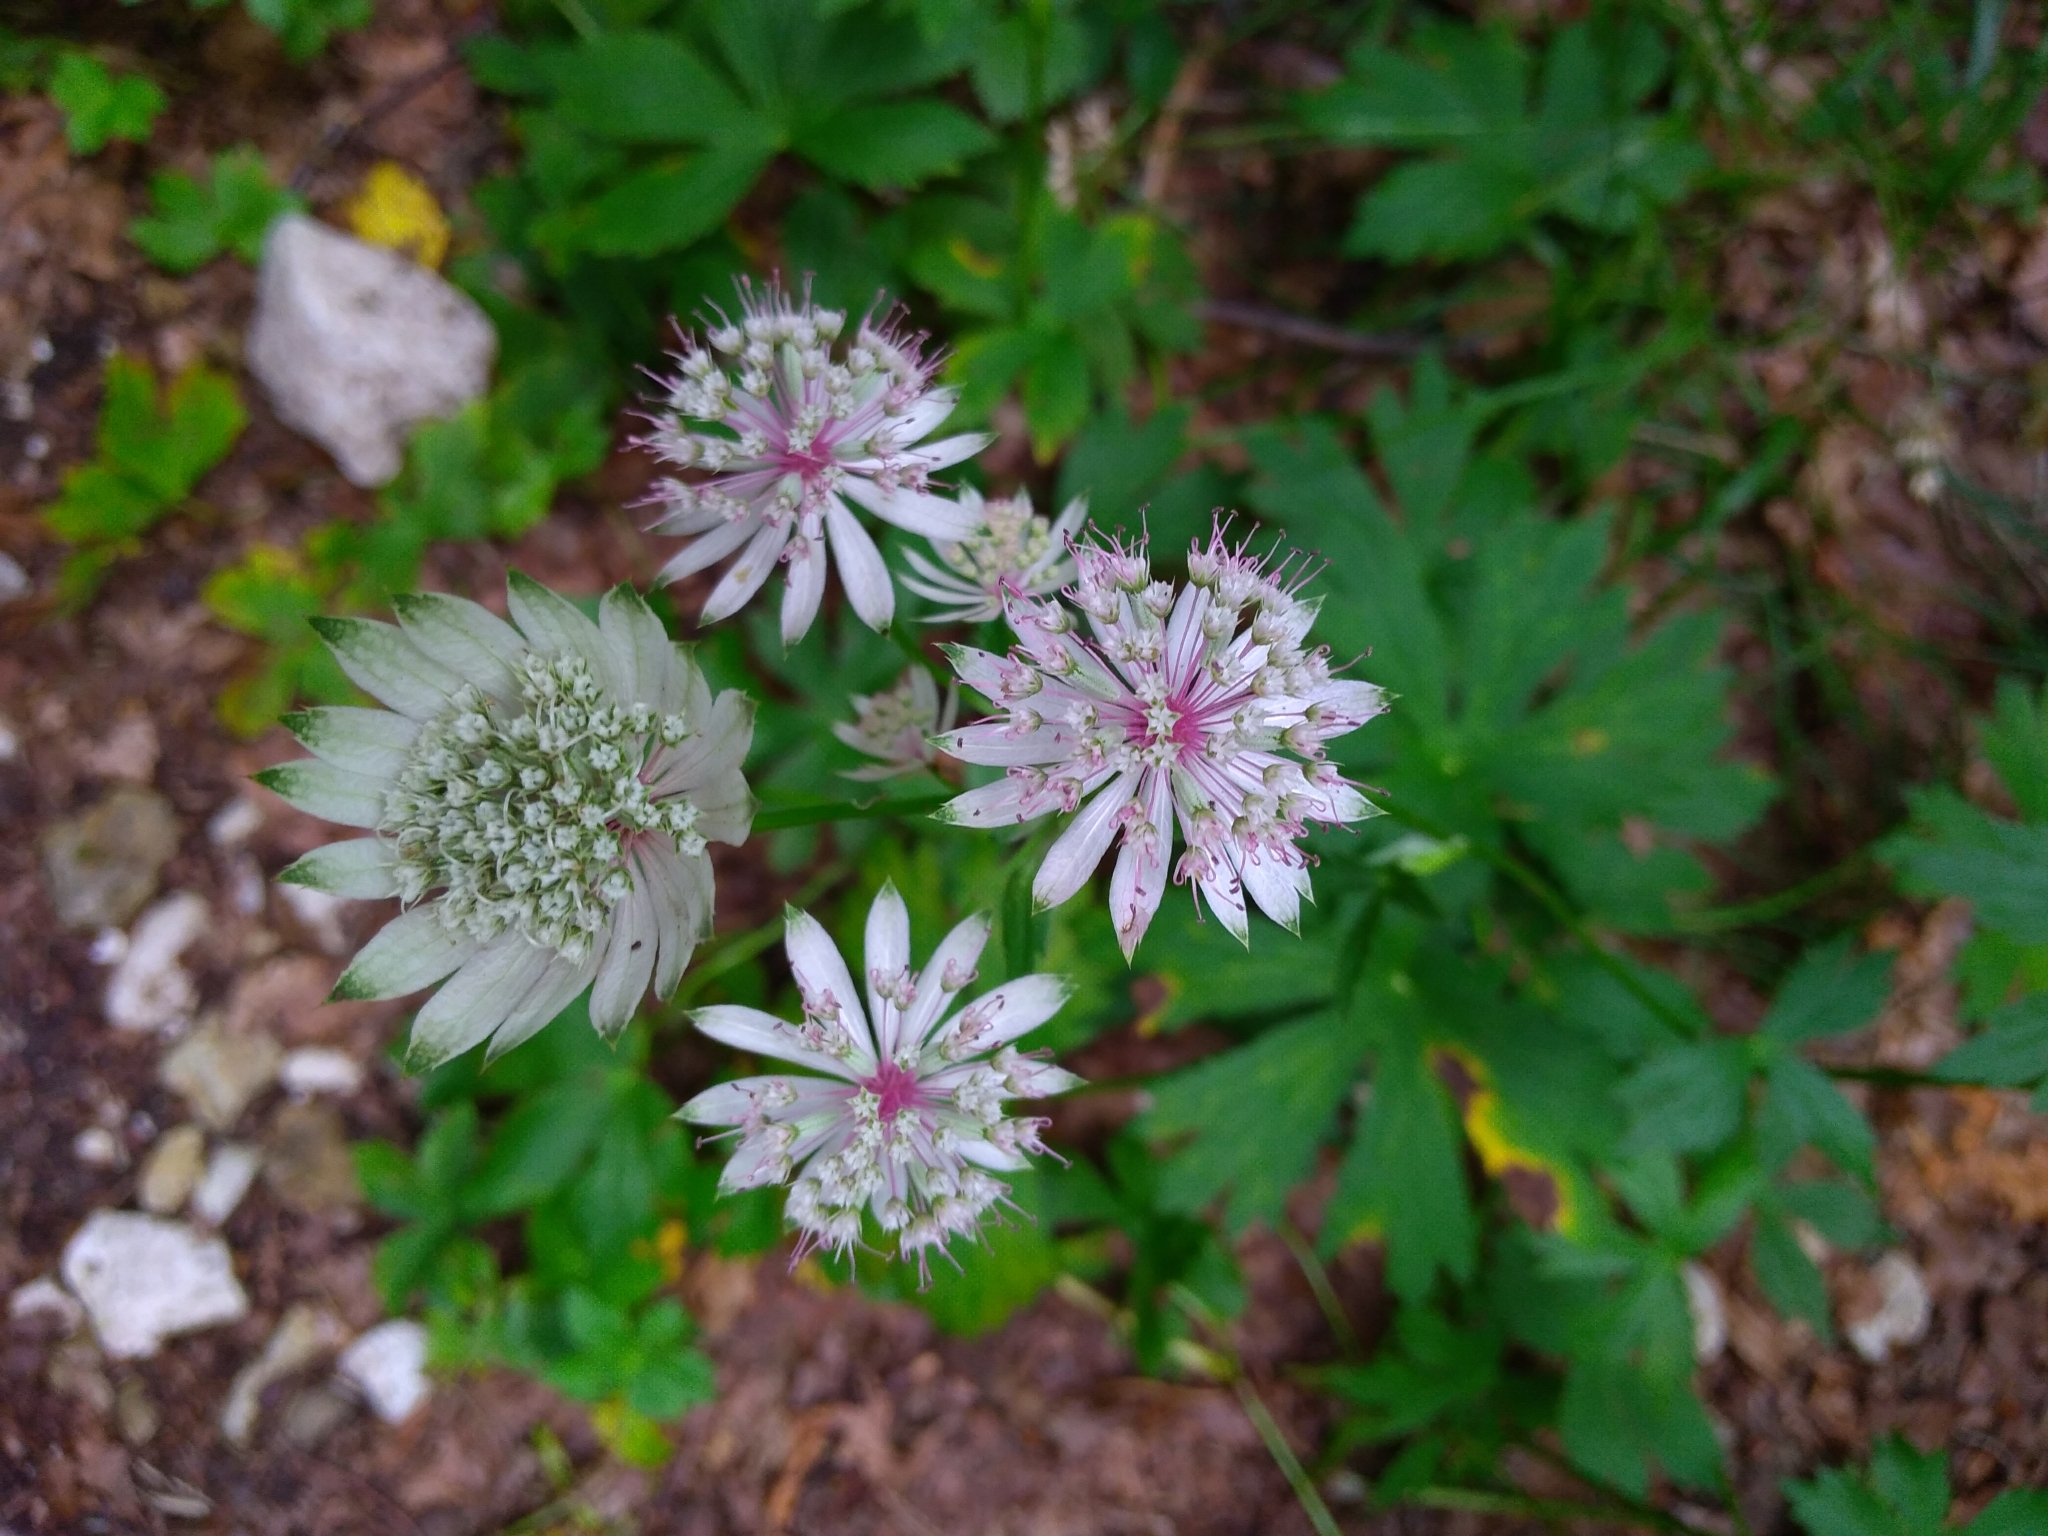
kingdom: Plantae
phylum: Tracheophyta
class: Magnoliopsida
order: Apiales
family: Apiaceae
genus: Astrantia
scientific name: Astrantia major
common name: Greater masterwort
